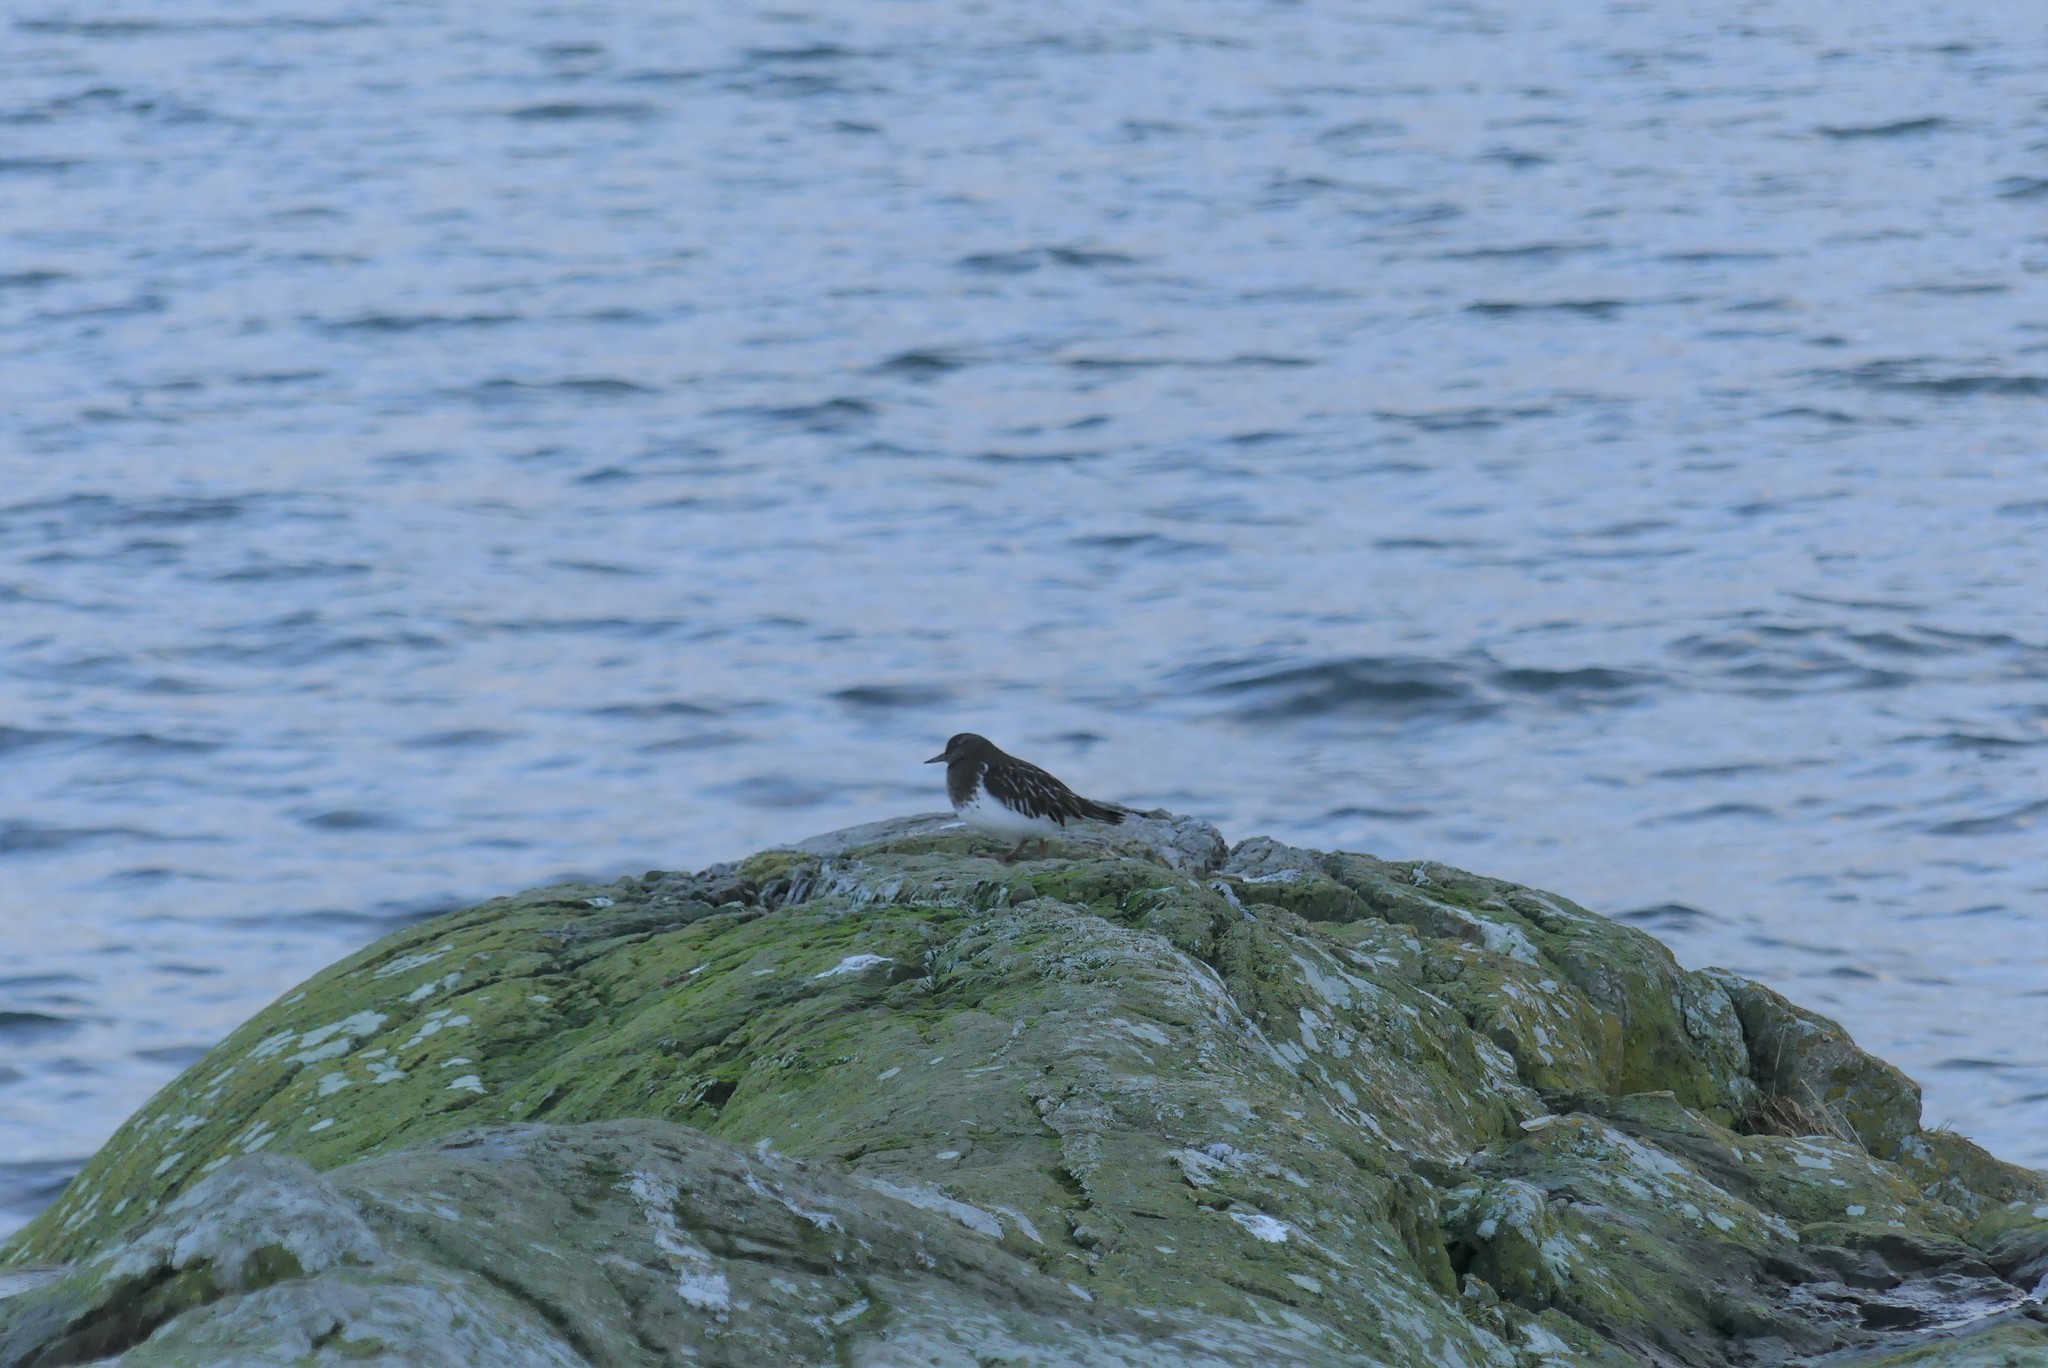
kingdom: Animalia
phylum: Chordata
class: Aves
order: Charadriiformes
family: Scolopacidae
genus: Arenaria
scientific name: Arenaria melanocephala
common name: Black turnstone
